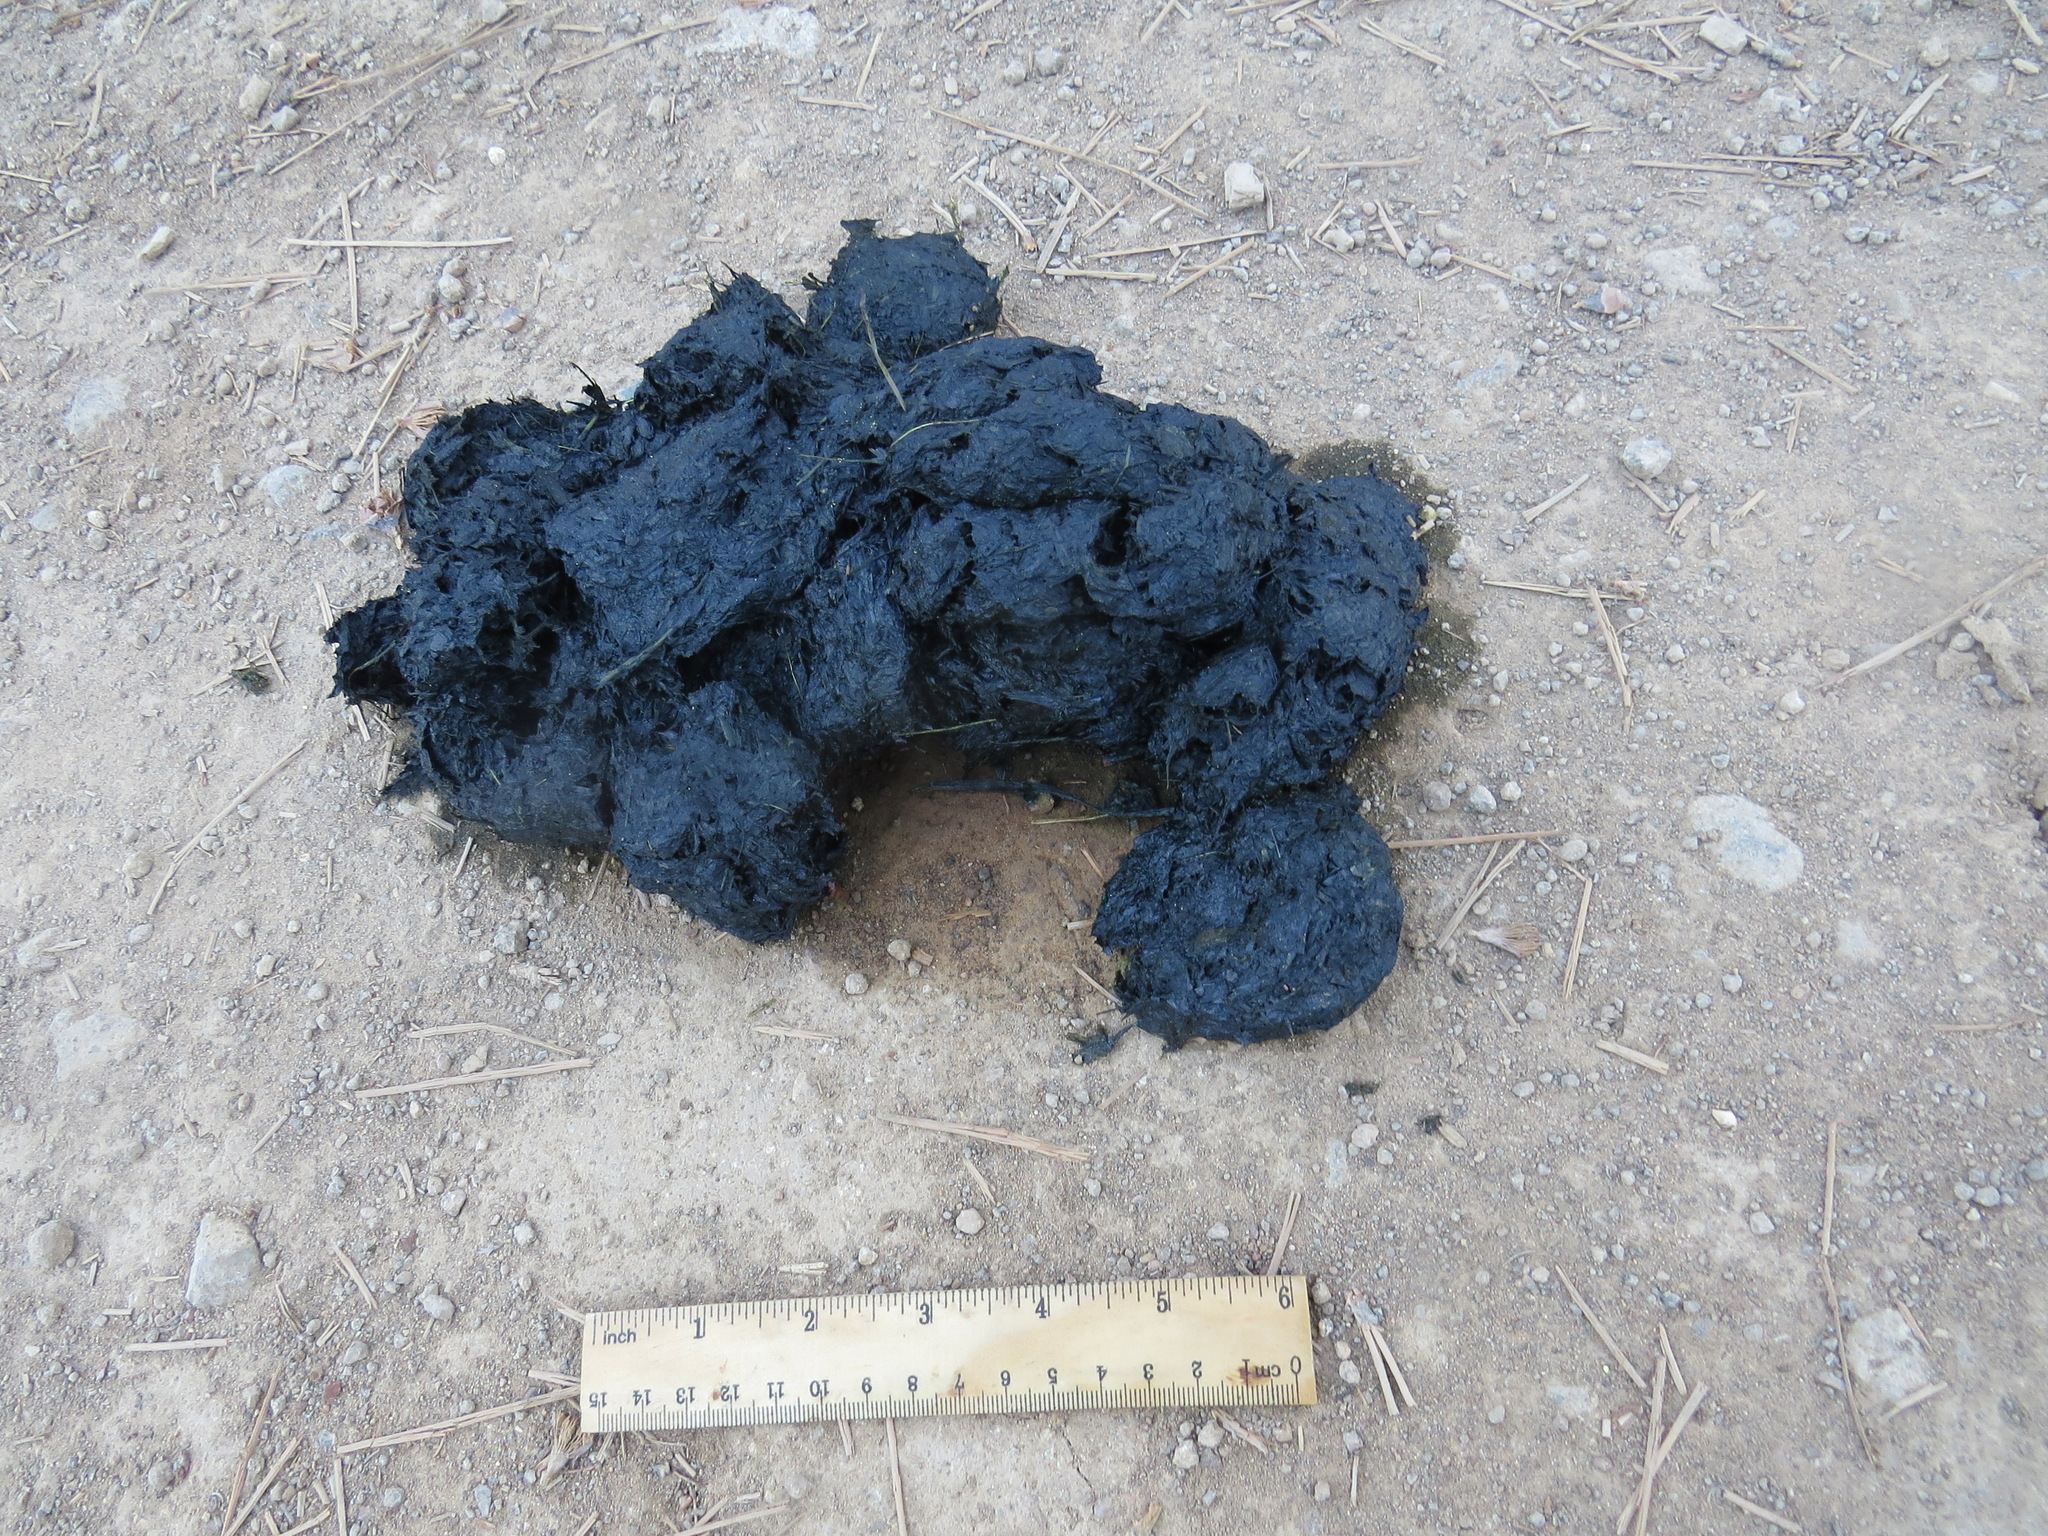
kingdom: Animalia
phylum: Chordata
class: Mammalia
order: Carnivora
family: Ursidae
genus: Ursus
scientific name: Ursus americanus
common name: American black bear
